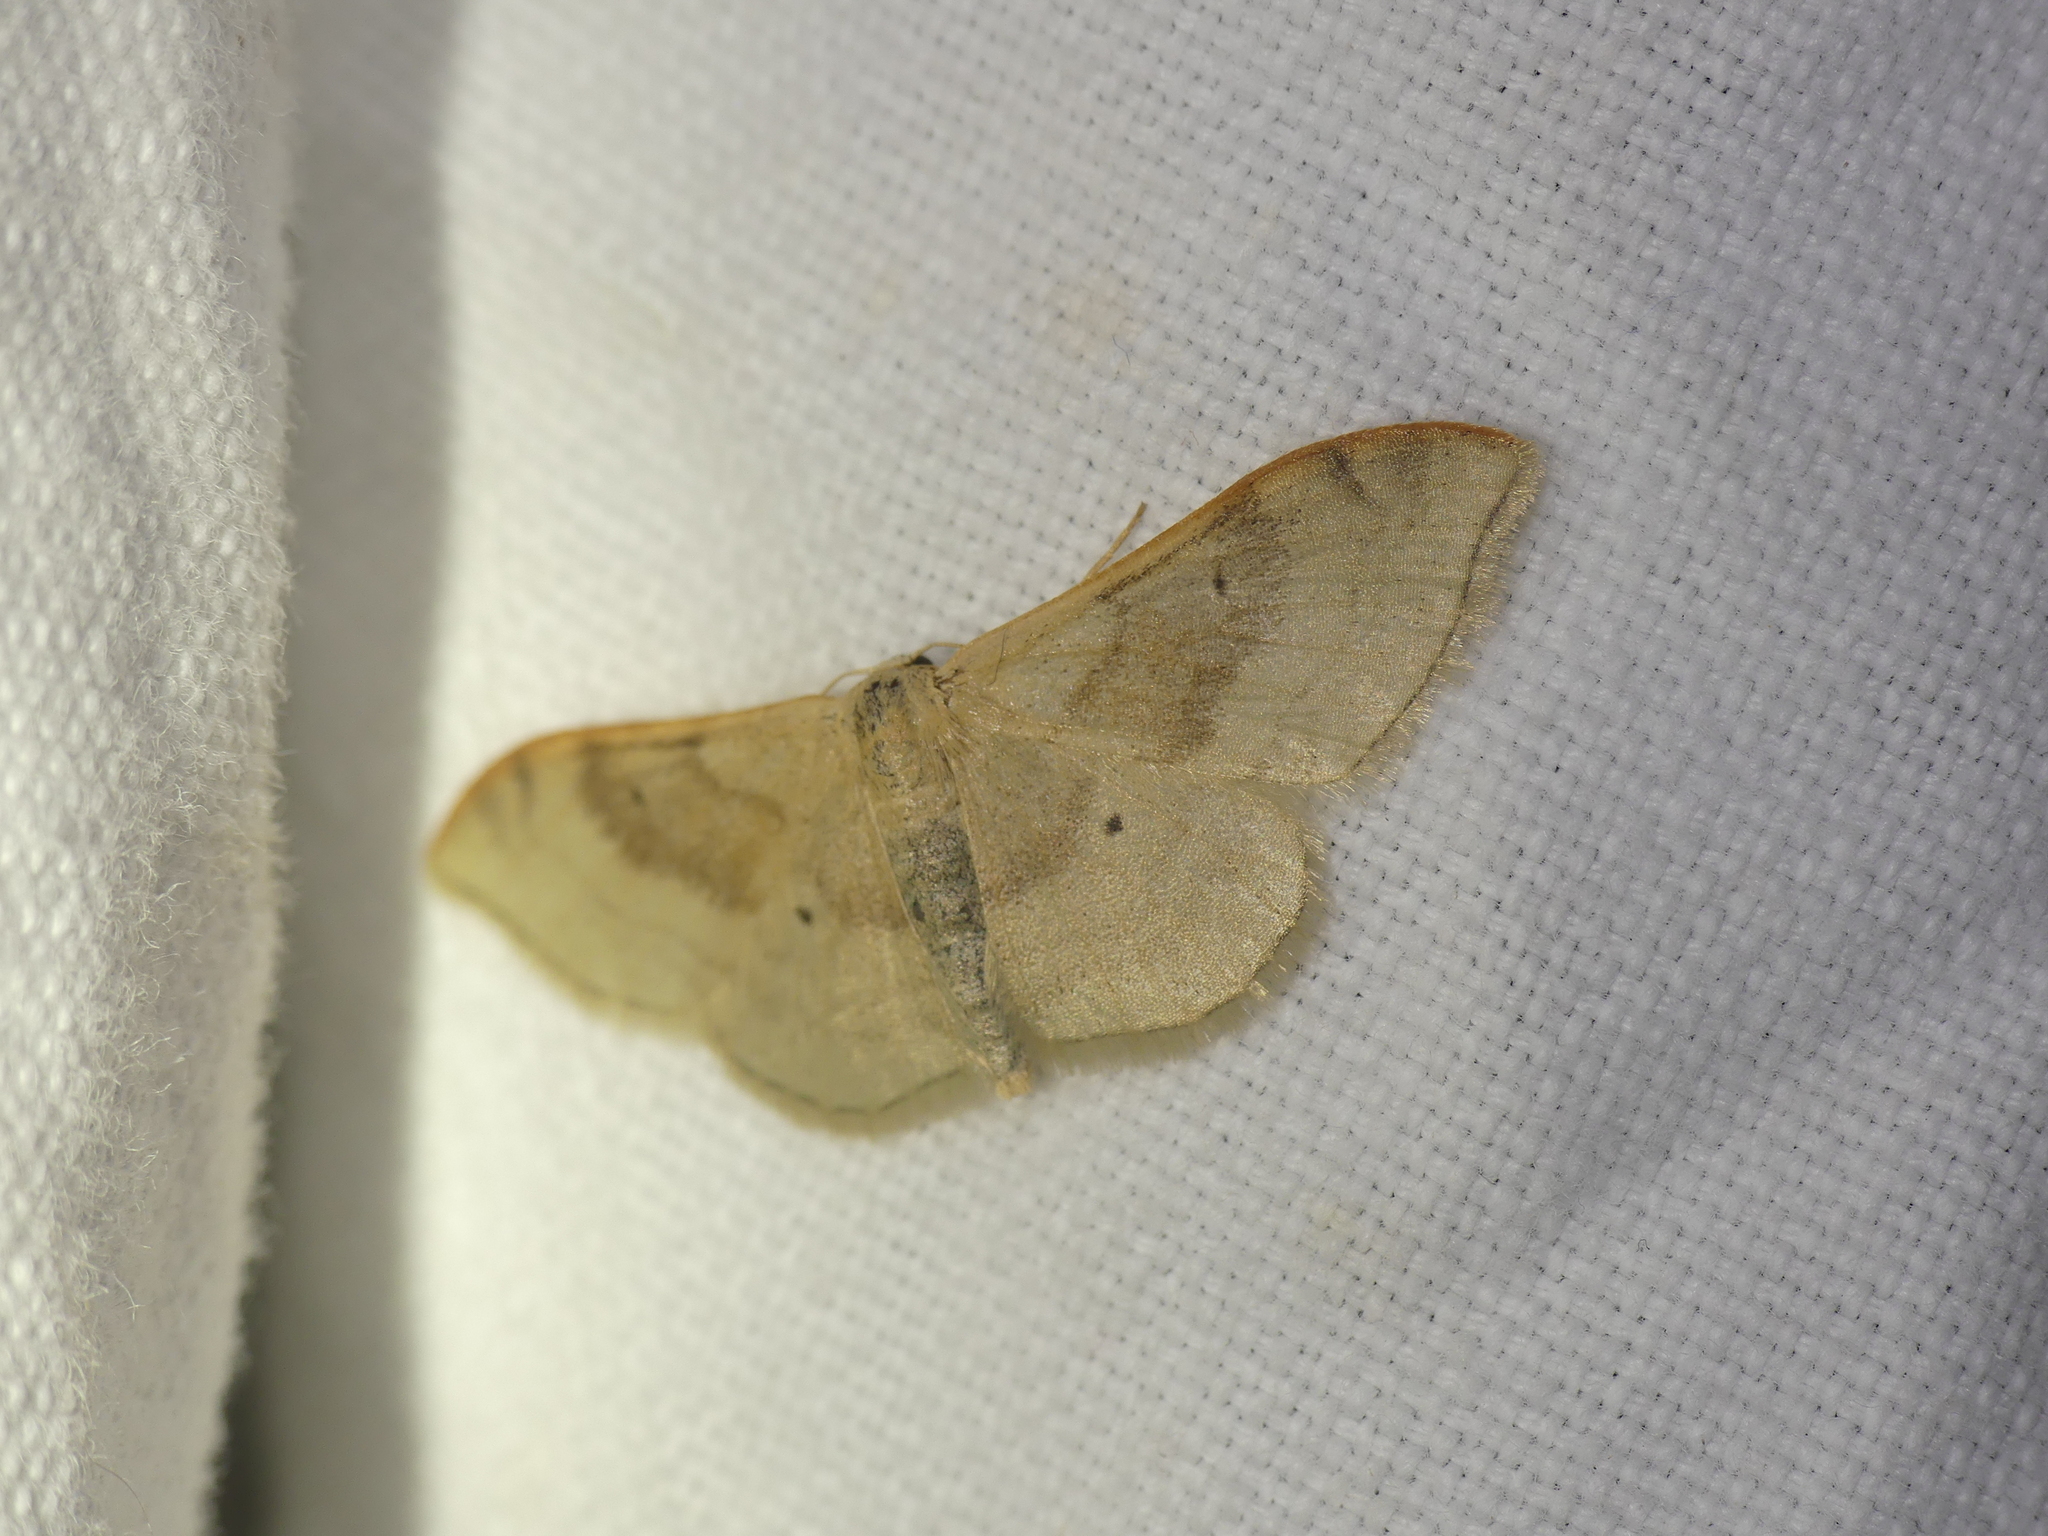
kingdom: Animalia
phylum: Arthropoda
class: Insecta
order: Lepidoptera
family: Geometridae
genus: Idaea
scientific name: Idaea degeneraria
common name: Portland ribbon wave
